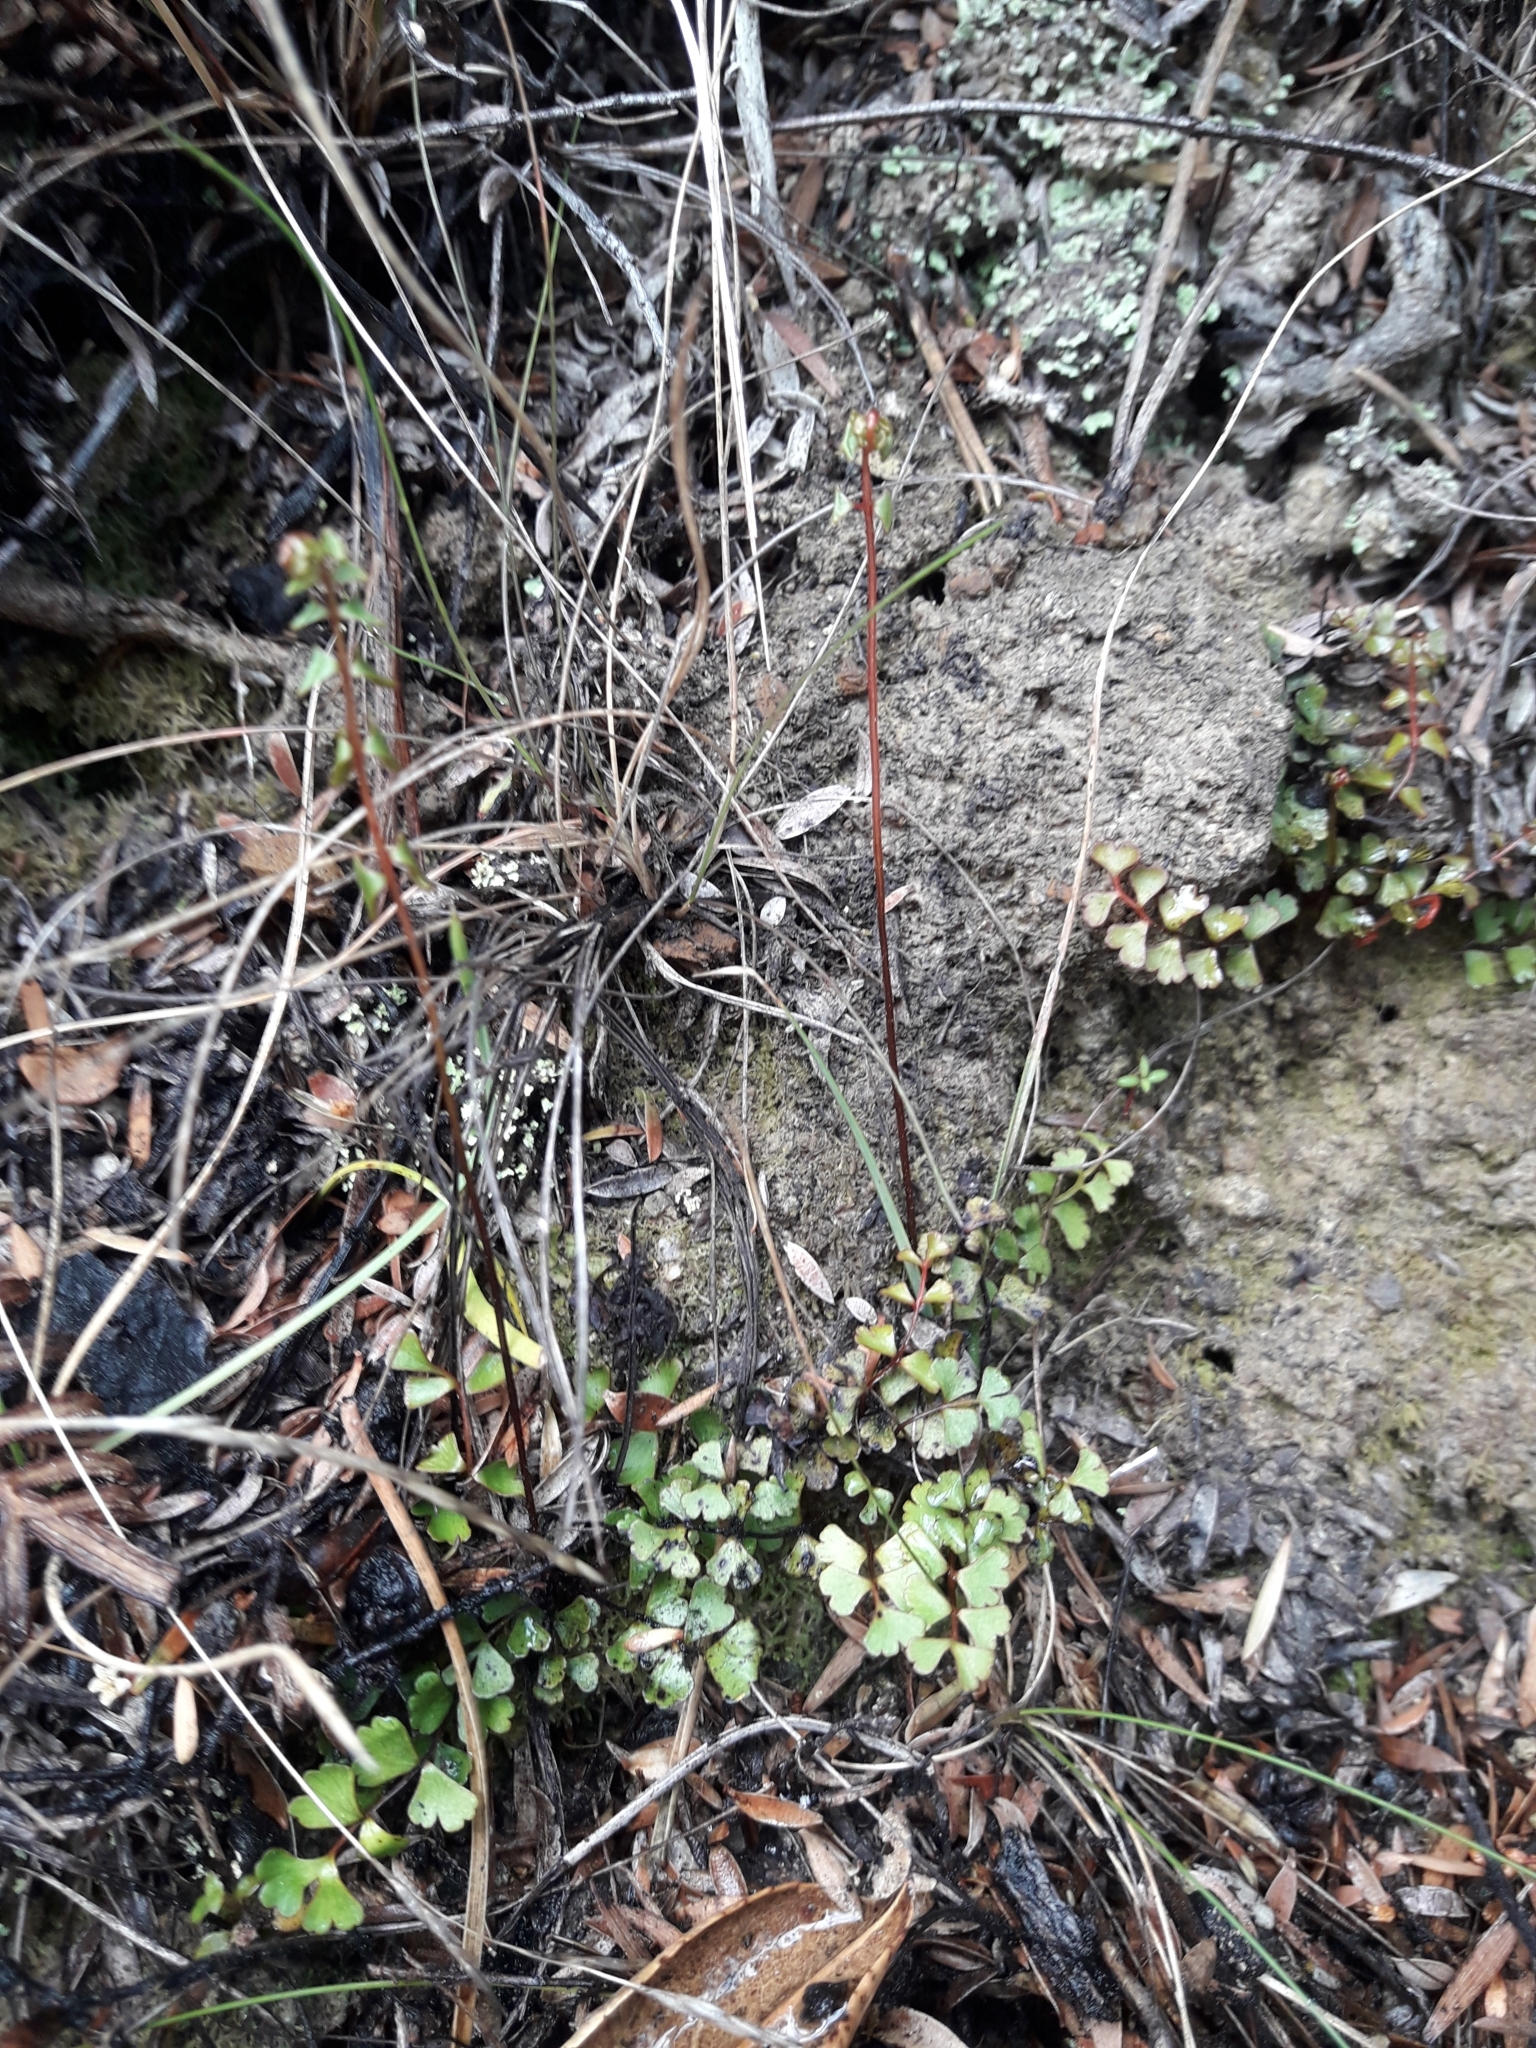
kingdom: Plantae
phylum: Tracheophyta
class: Polypodiopsida
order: Polypodiales
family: Lindsaeaceae
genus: Lindsaea
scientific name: Lindsaea linearis
